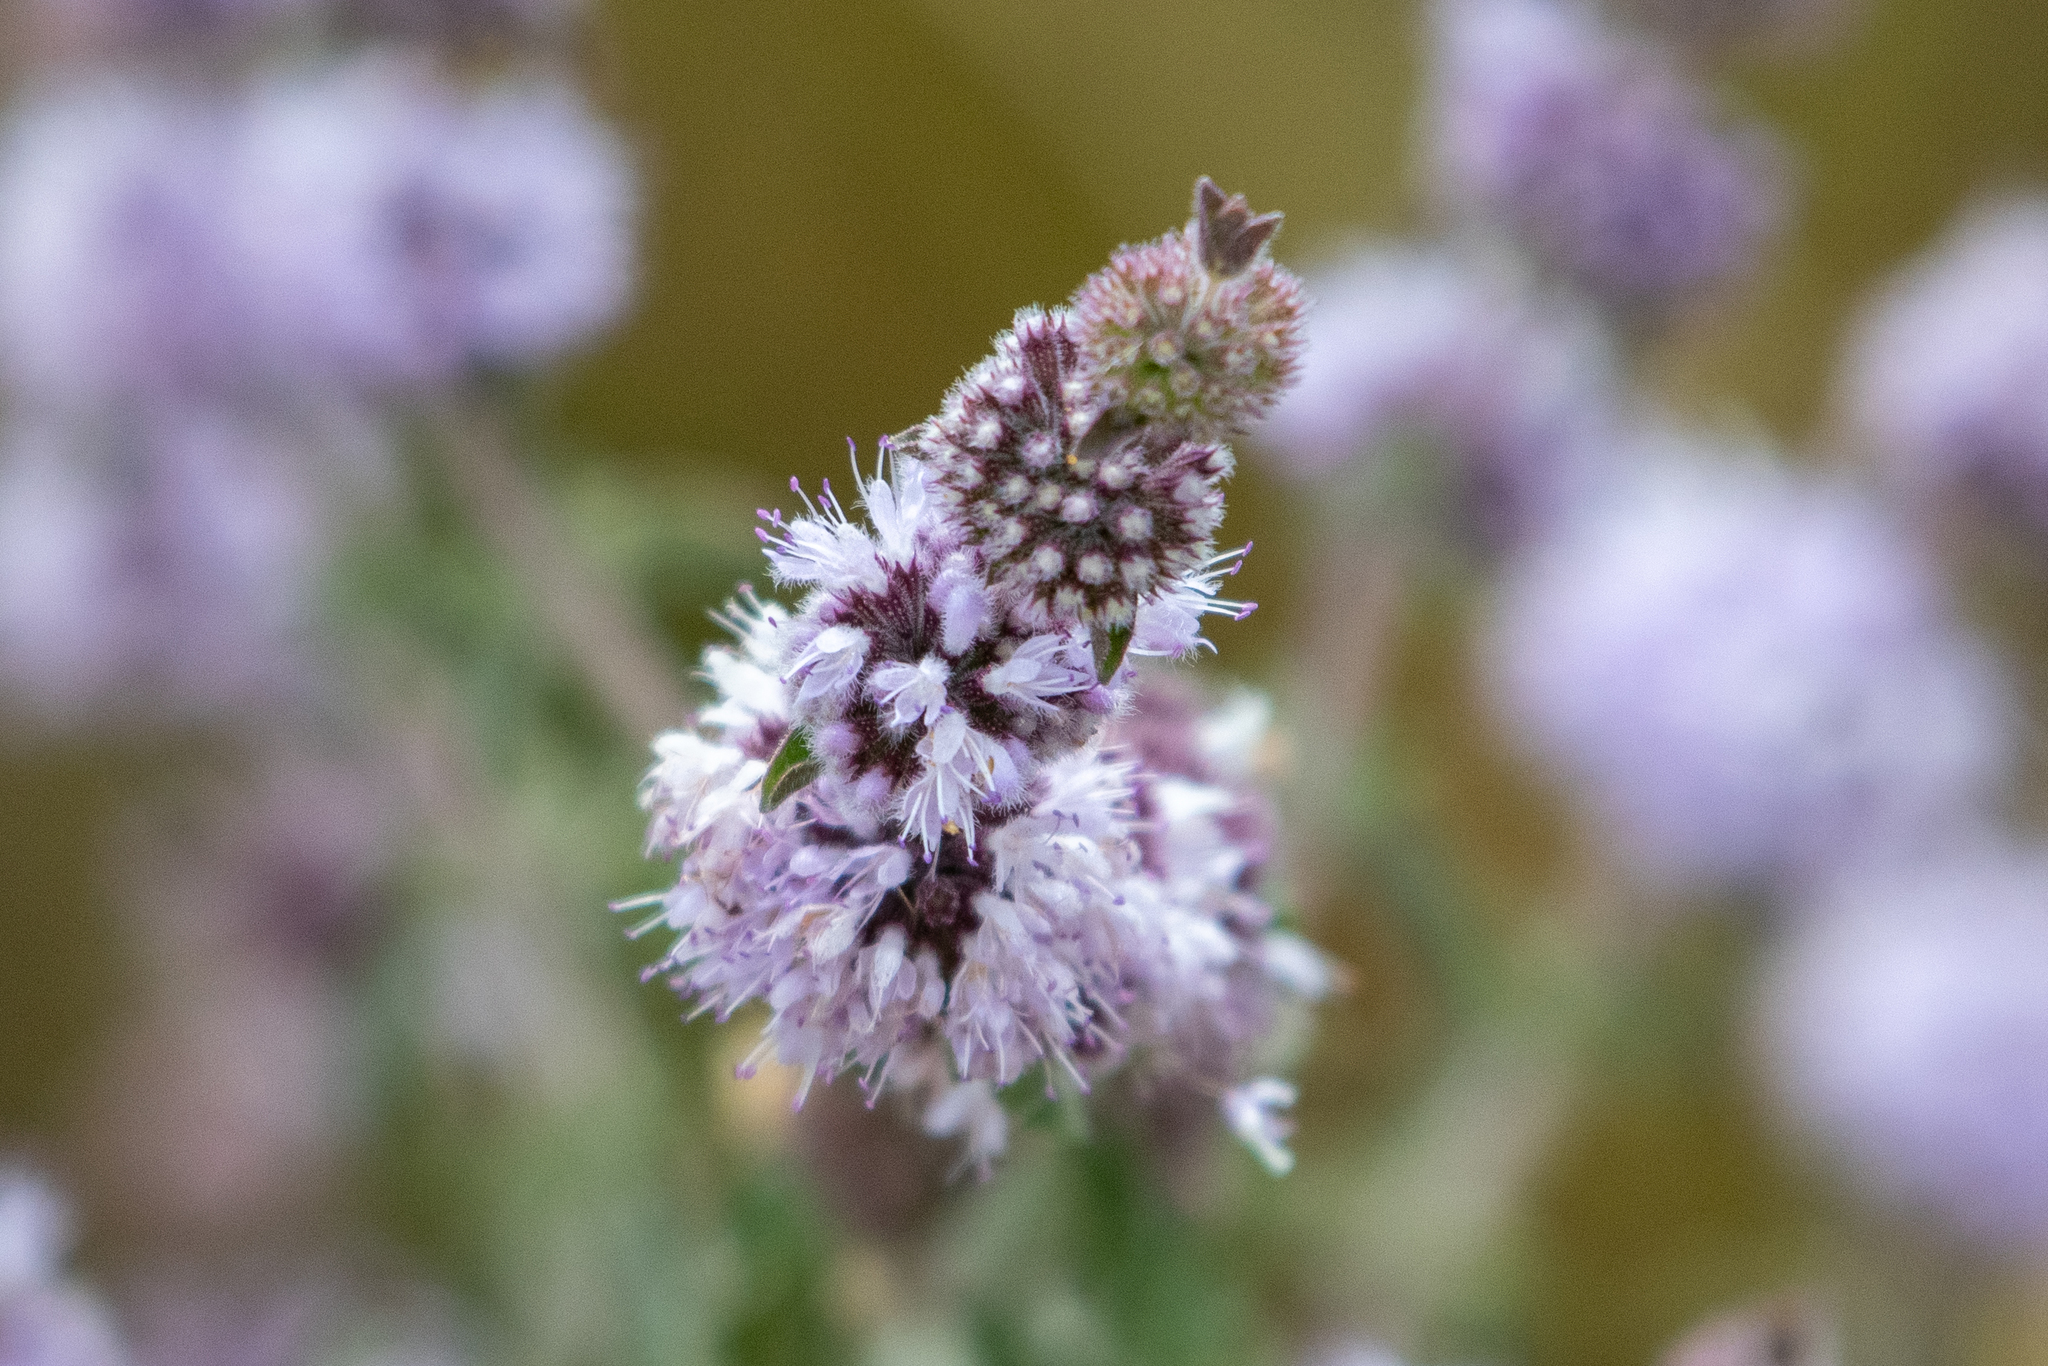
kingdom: Plantae
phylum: Tracheophyta
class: Magnoliopsida
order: Lamiales
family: Lamiaceae
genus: Mentha
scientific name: Mentha pulegium
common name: Pennyroyal
